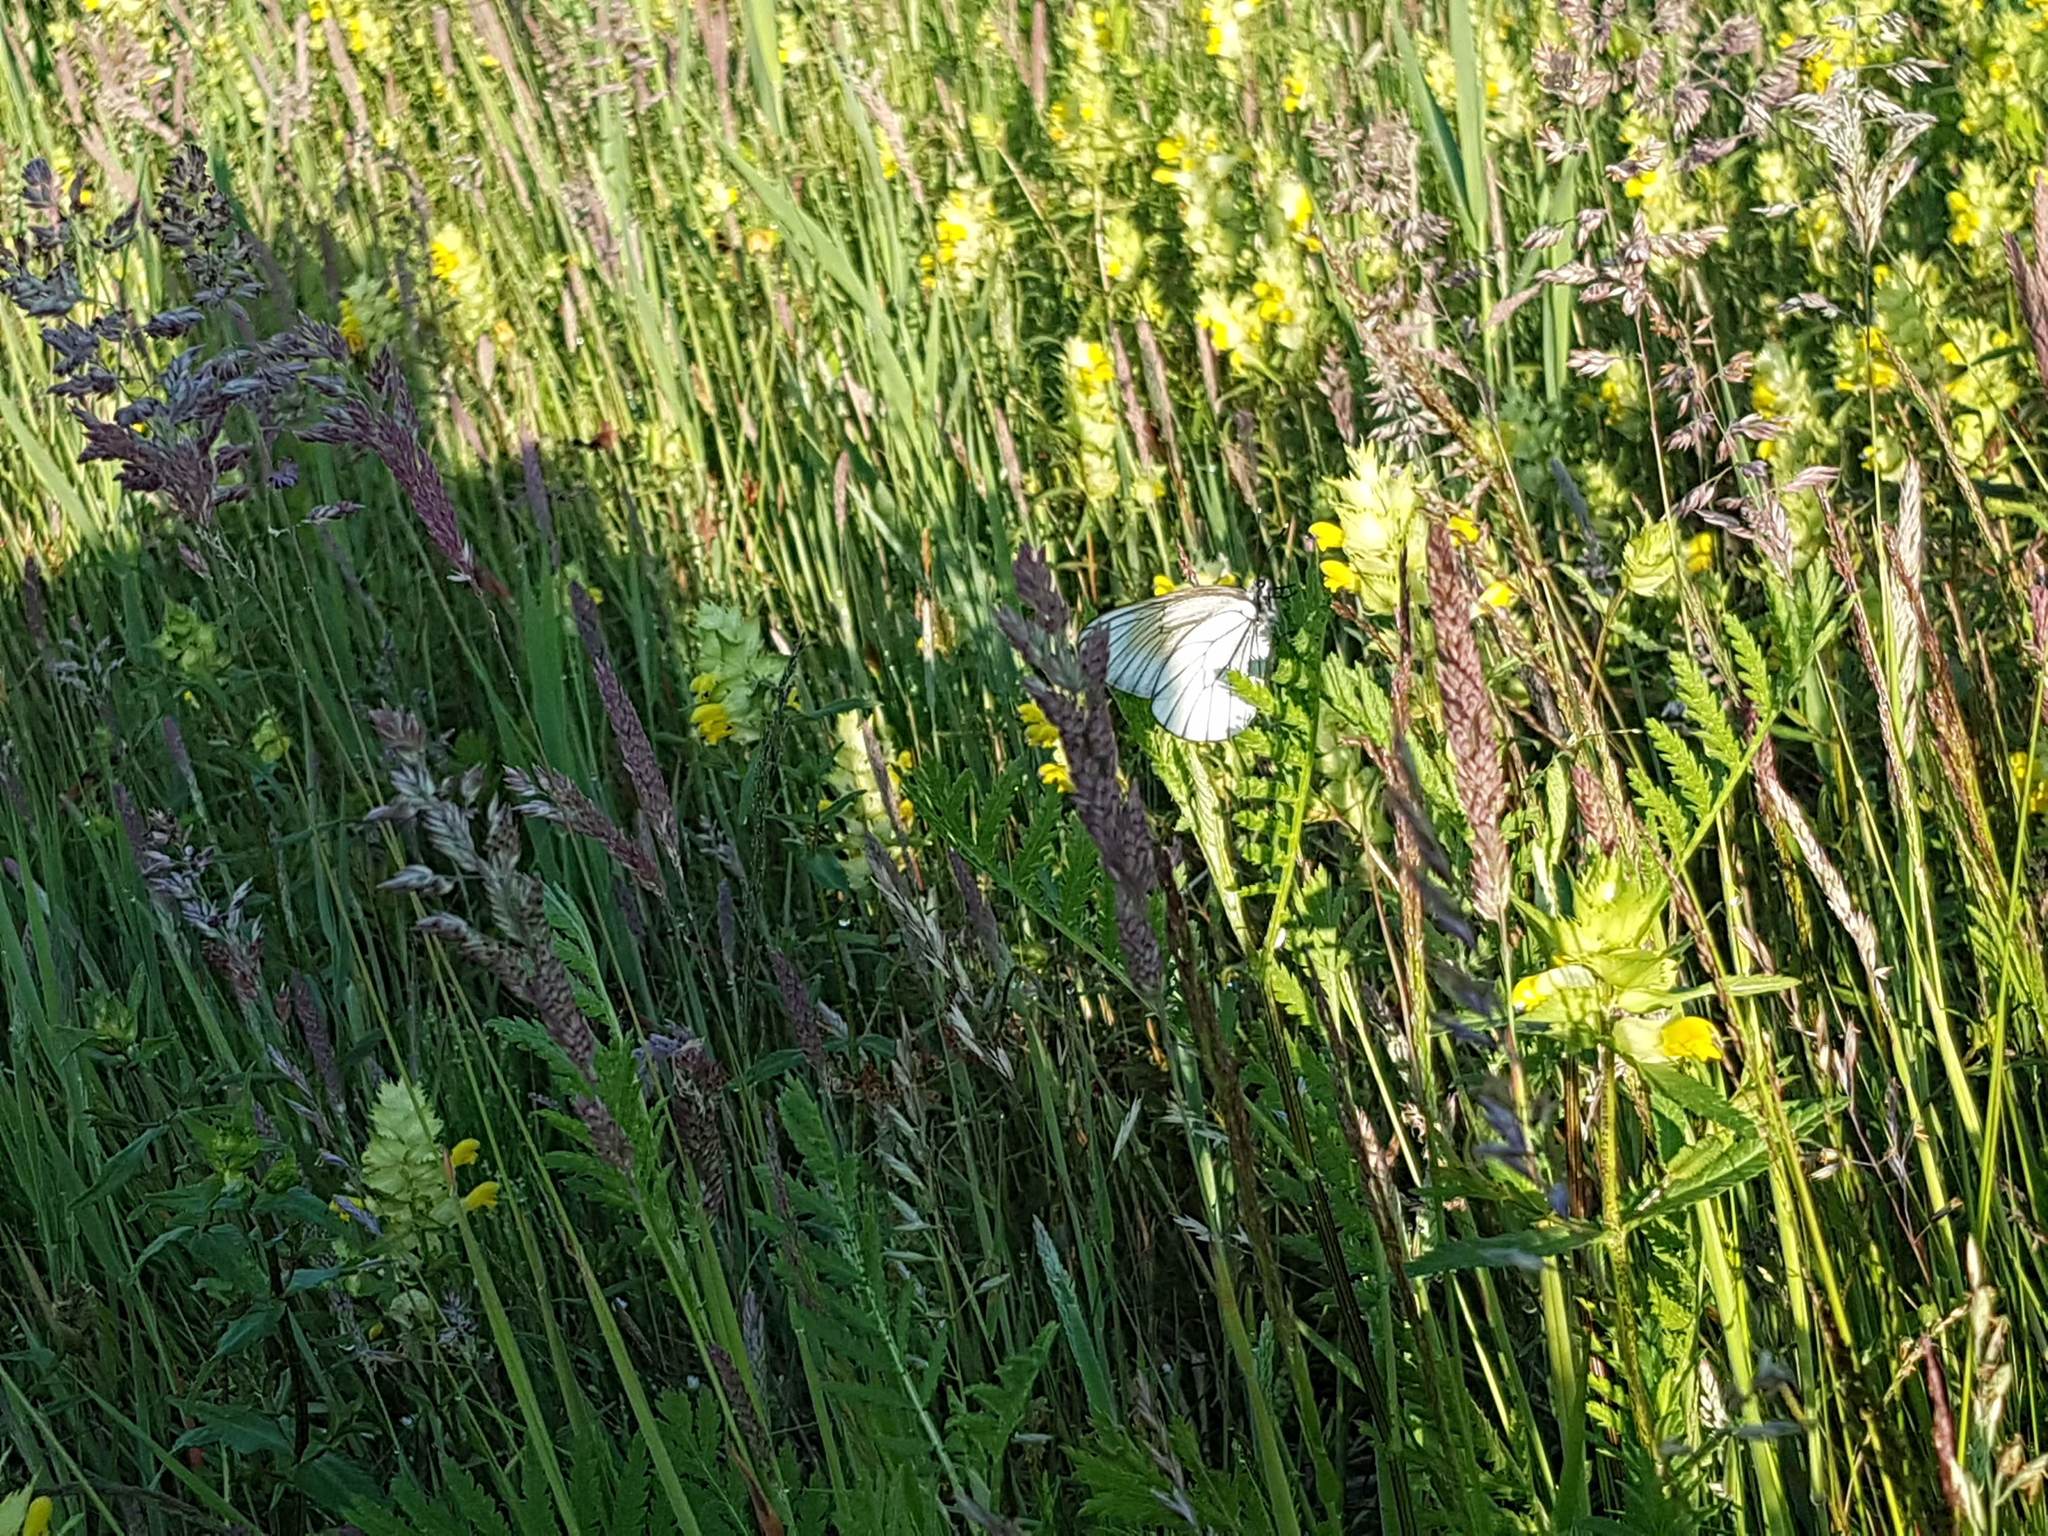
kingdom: Animalia
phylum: Arthropoda
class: Insecta
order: Lepidoptera
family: Pieridae
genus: Aporia
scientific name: Aporia crataegi
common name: Black-veined white
